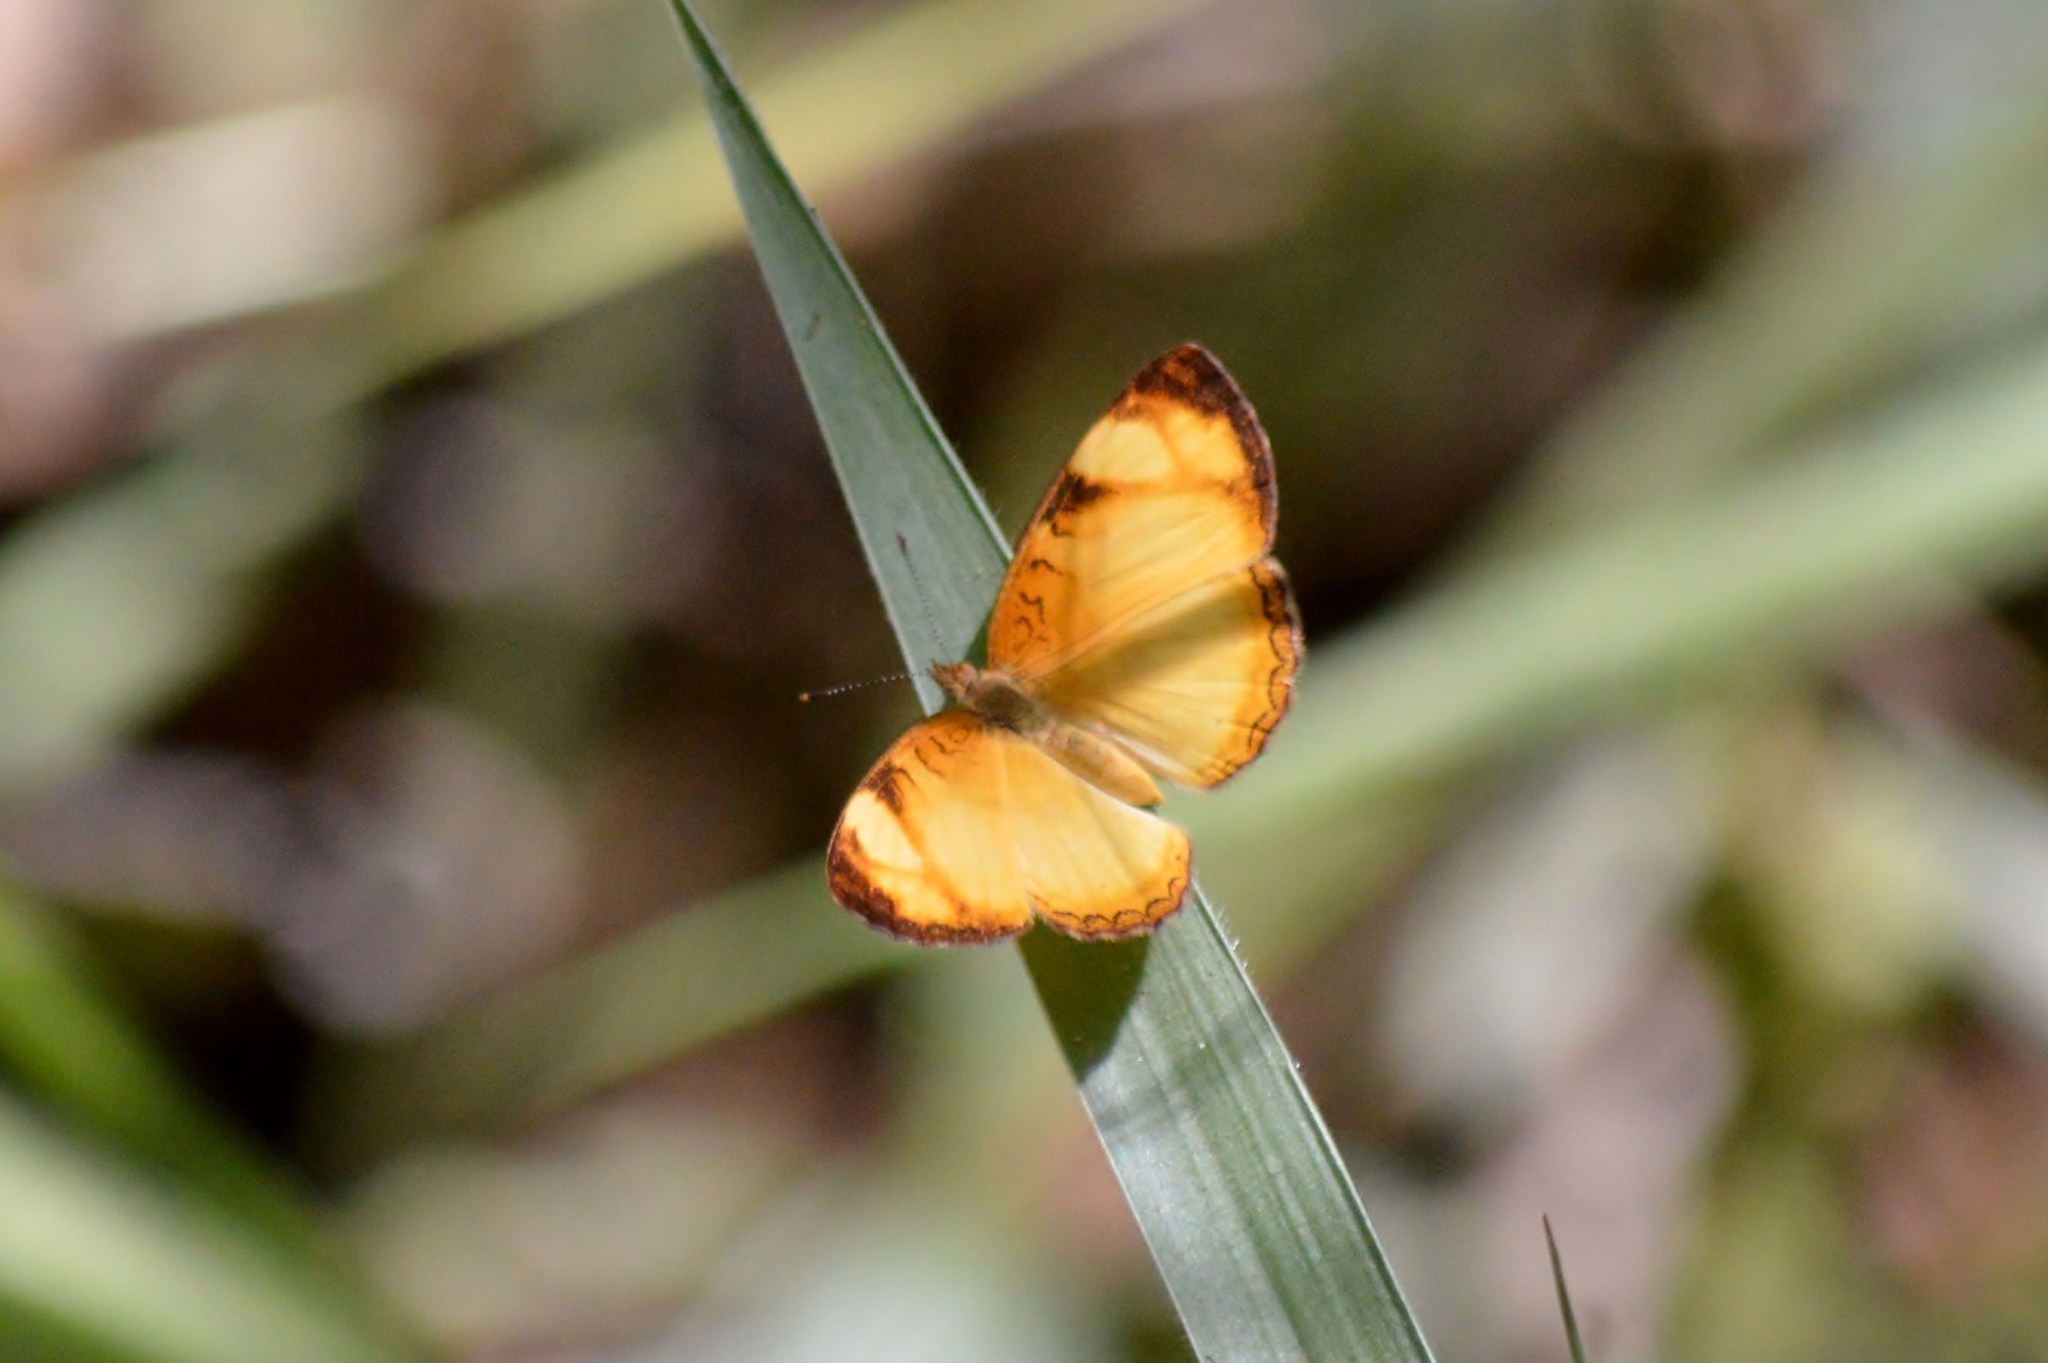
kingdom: Animalia
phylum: Arthropoda
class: Insecta
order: Lepidoptera
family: Nymphalidae
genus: Tegosa
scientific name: Tegosa claudina
